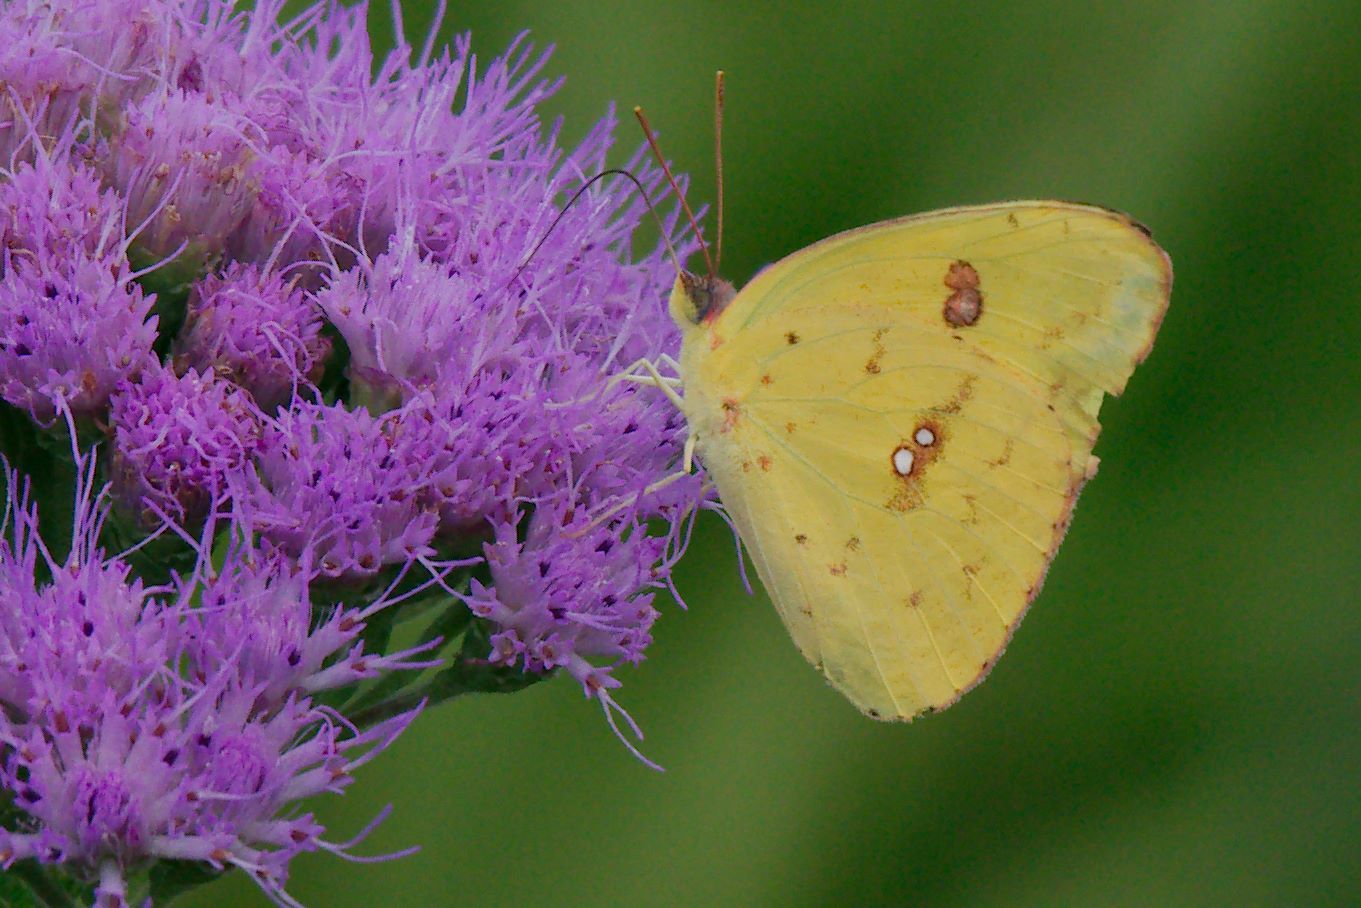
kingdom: Animalia
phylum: Arthropoda
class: Insecta
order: Lepidoptera
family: Pieridae
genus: Phoebis
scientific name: Phoebis sennae
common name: Cloudless sulphur
